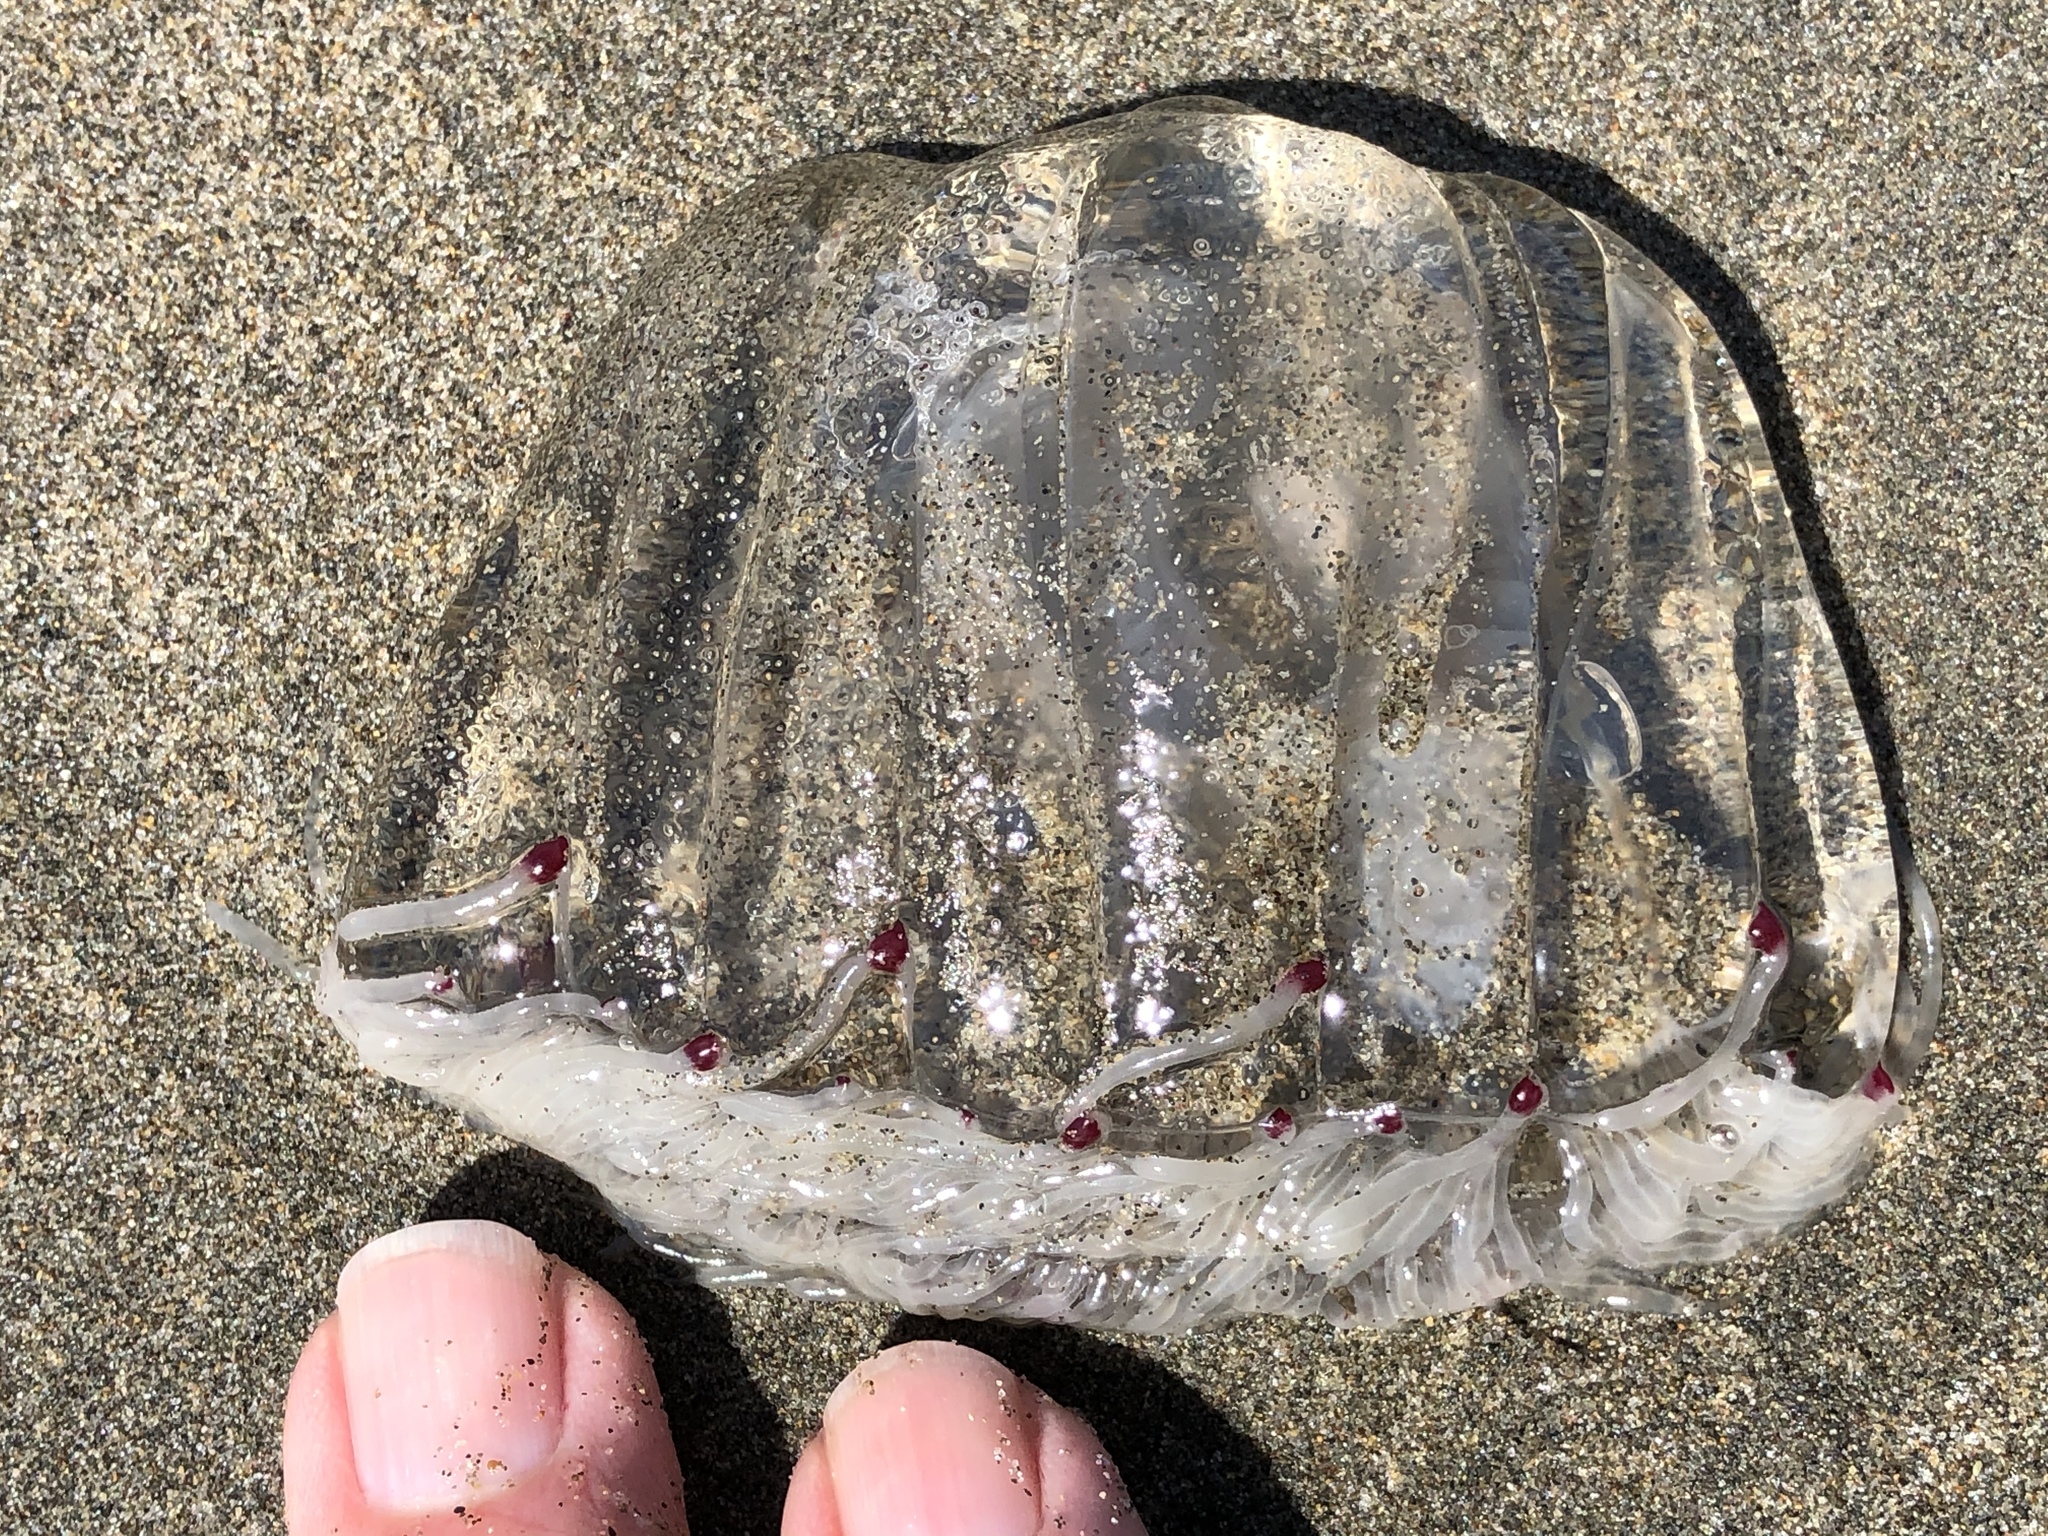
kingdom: Animalia
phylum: Cnidaria
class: Hydrozoa
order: Anthoathecata
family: Corynidae
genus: Scrippsia
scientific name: Scrippsia pacifica
